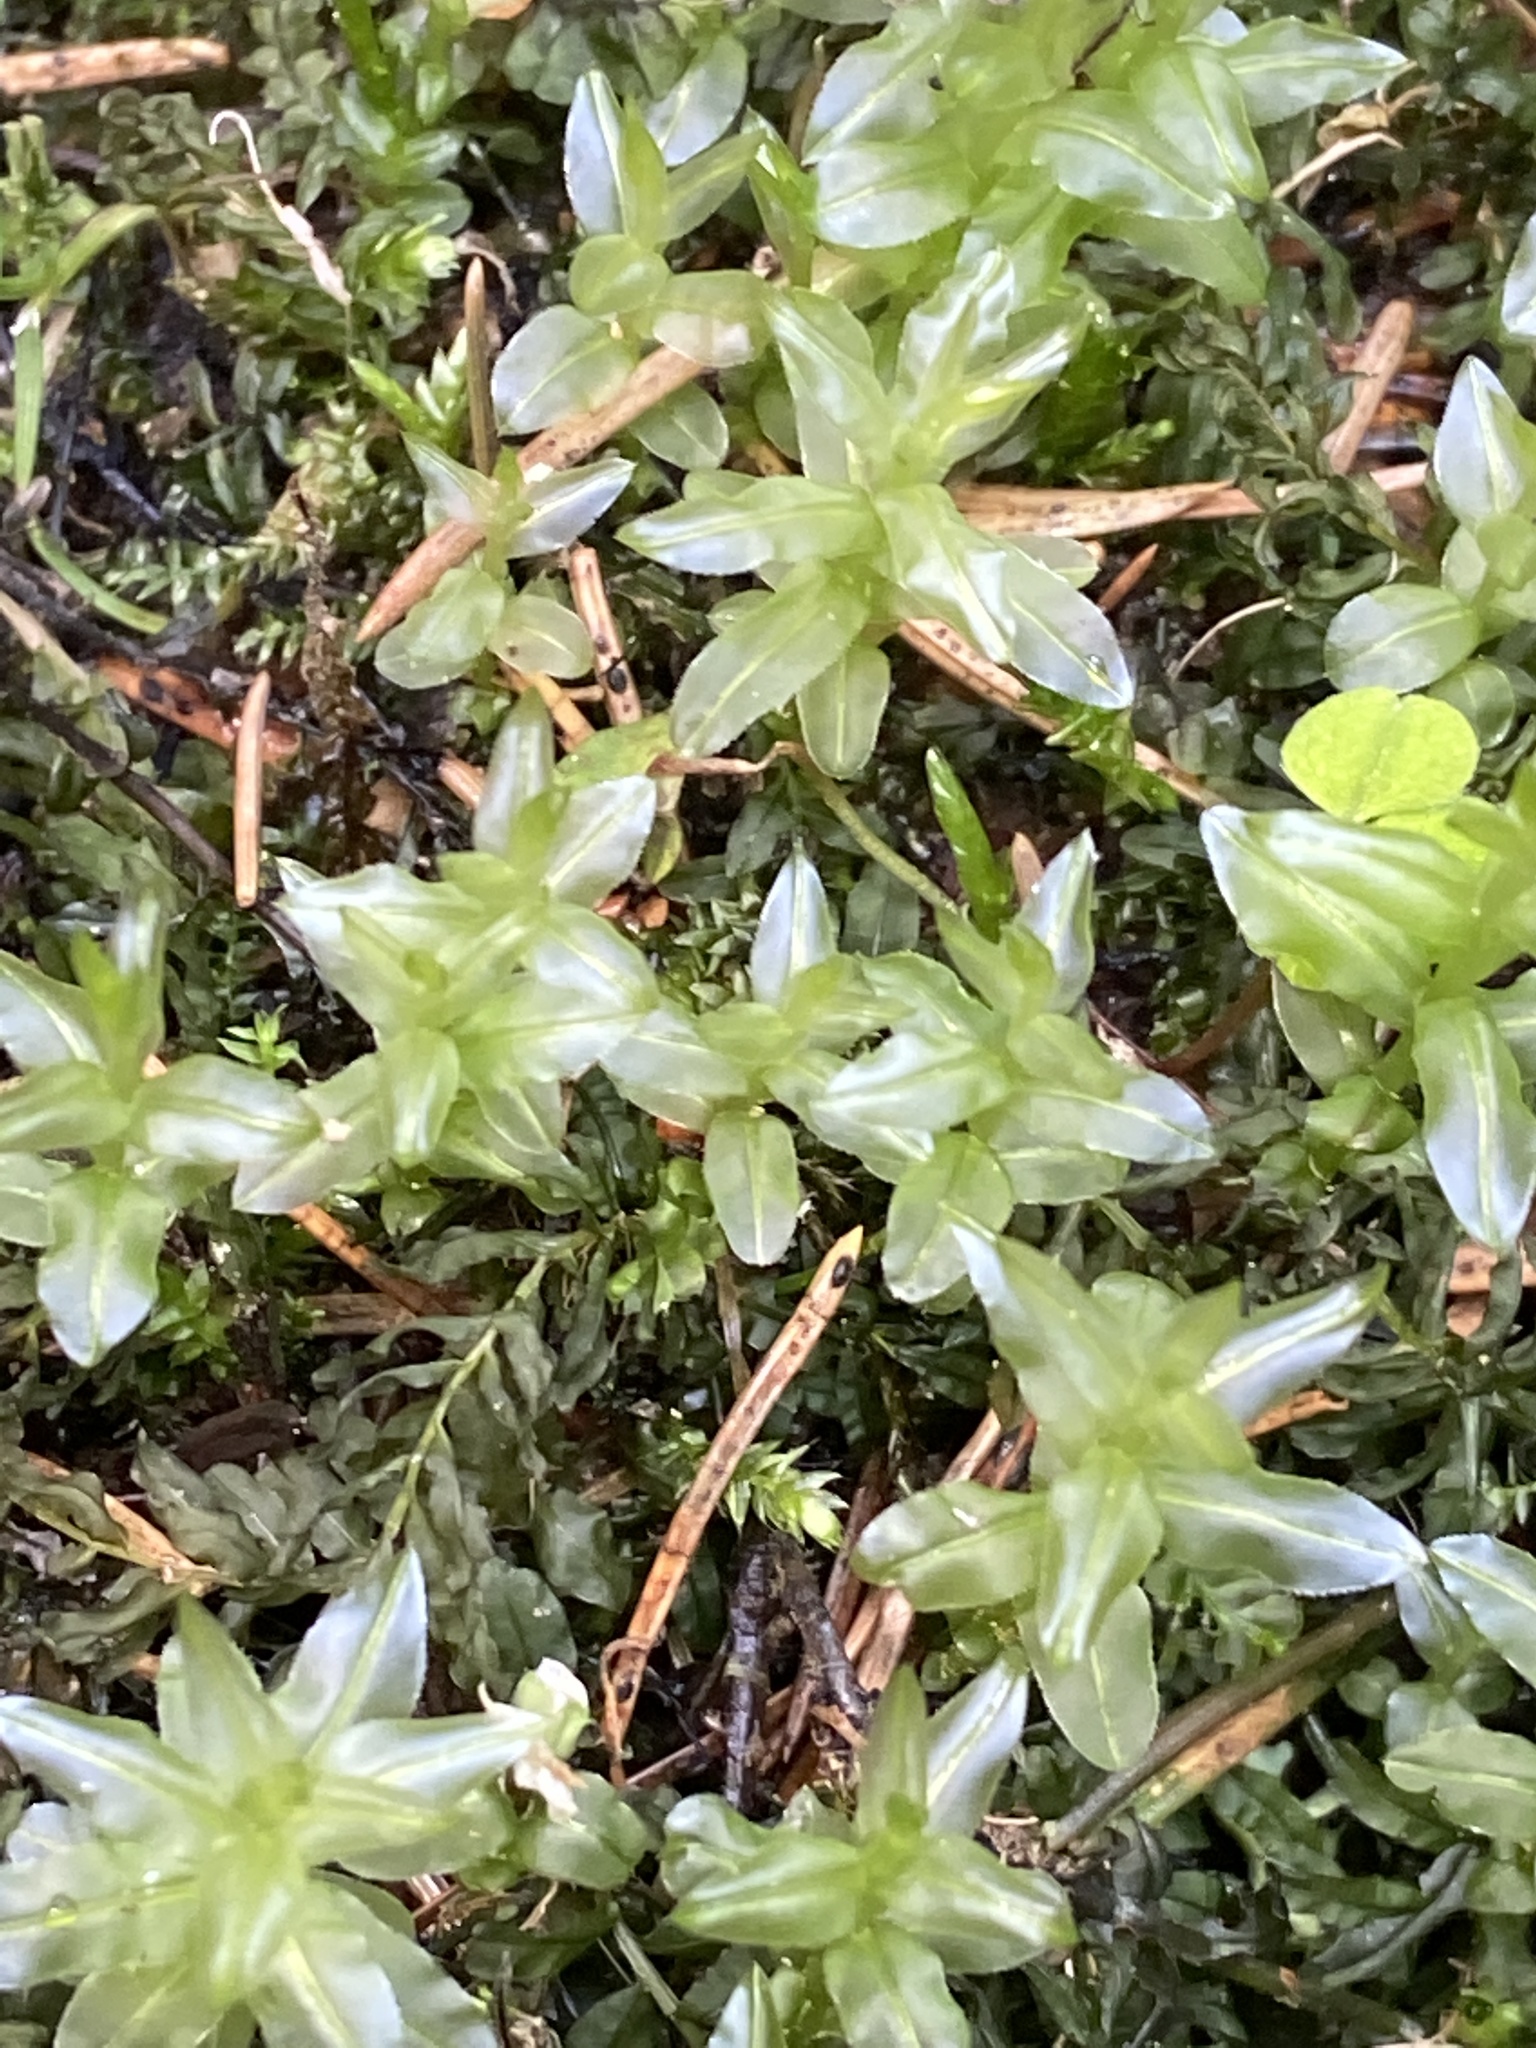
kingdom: Plantae
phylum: Bryophyta
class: Bryopsida
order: Bryales
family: Mniaceae
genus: Plagiomnium
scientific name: Plagiomnium undulatum
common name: Hart's-tongue thyme-moss
